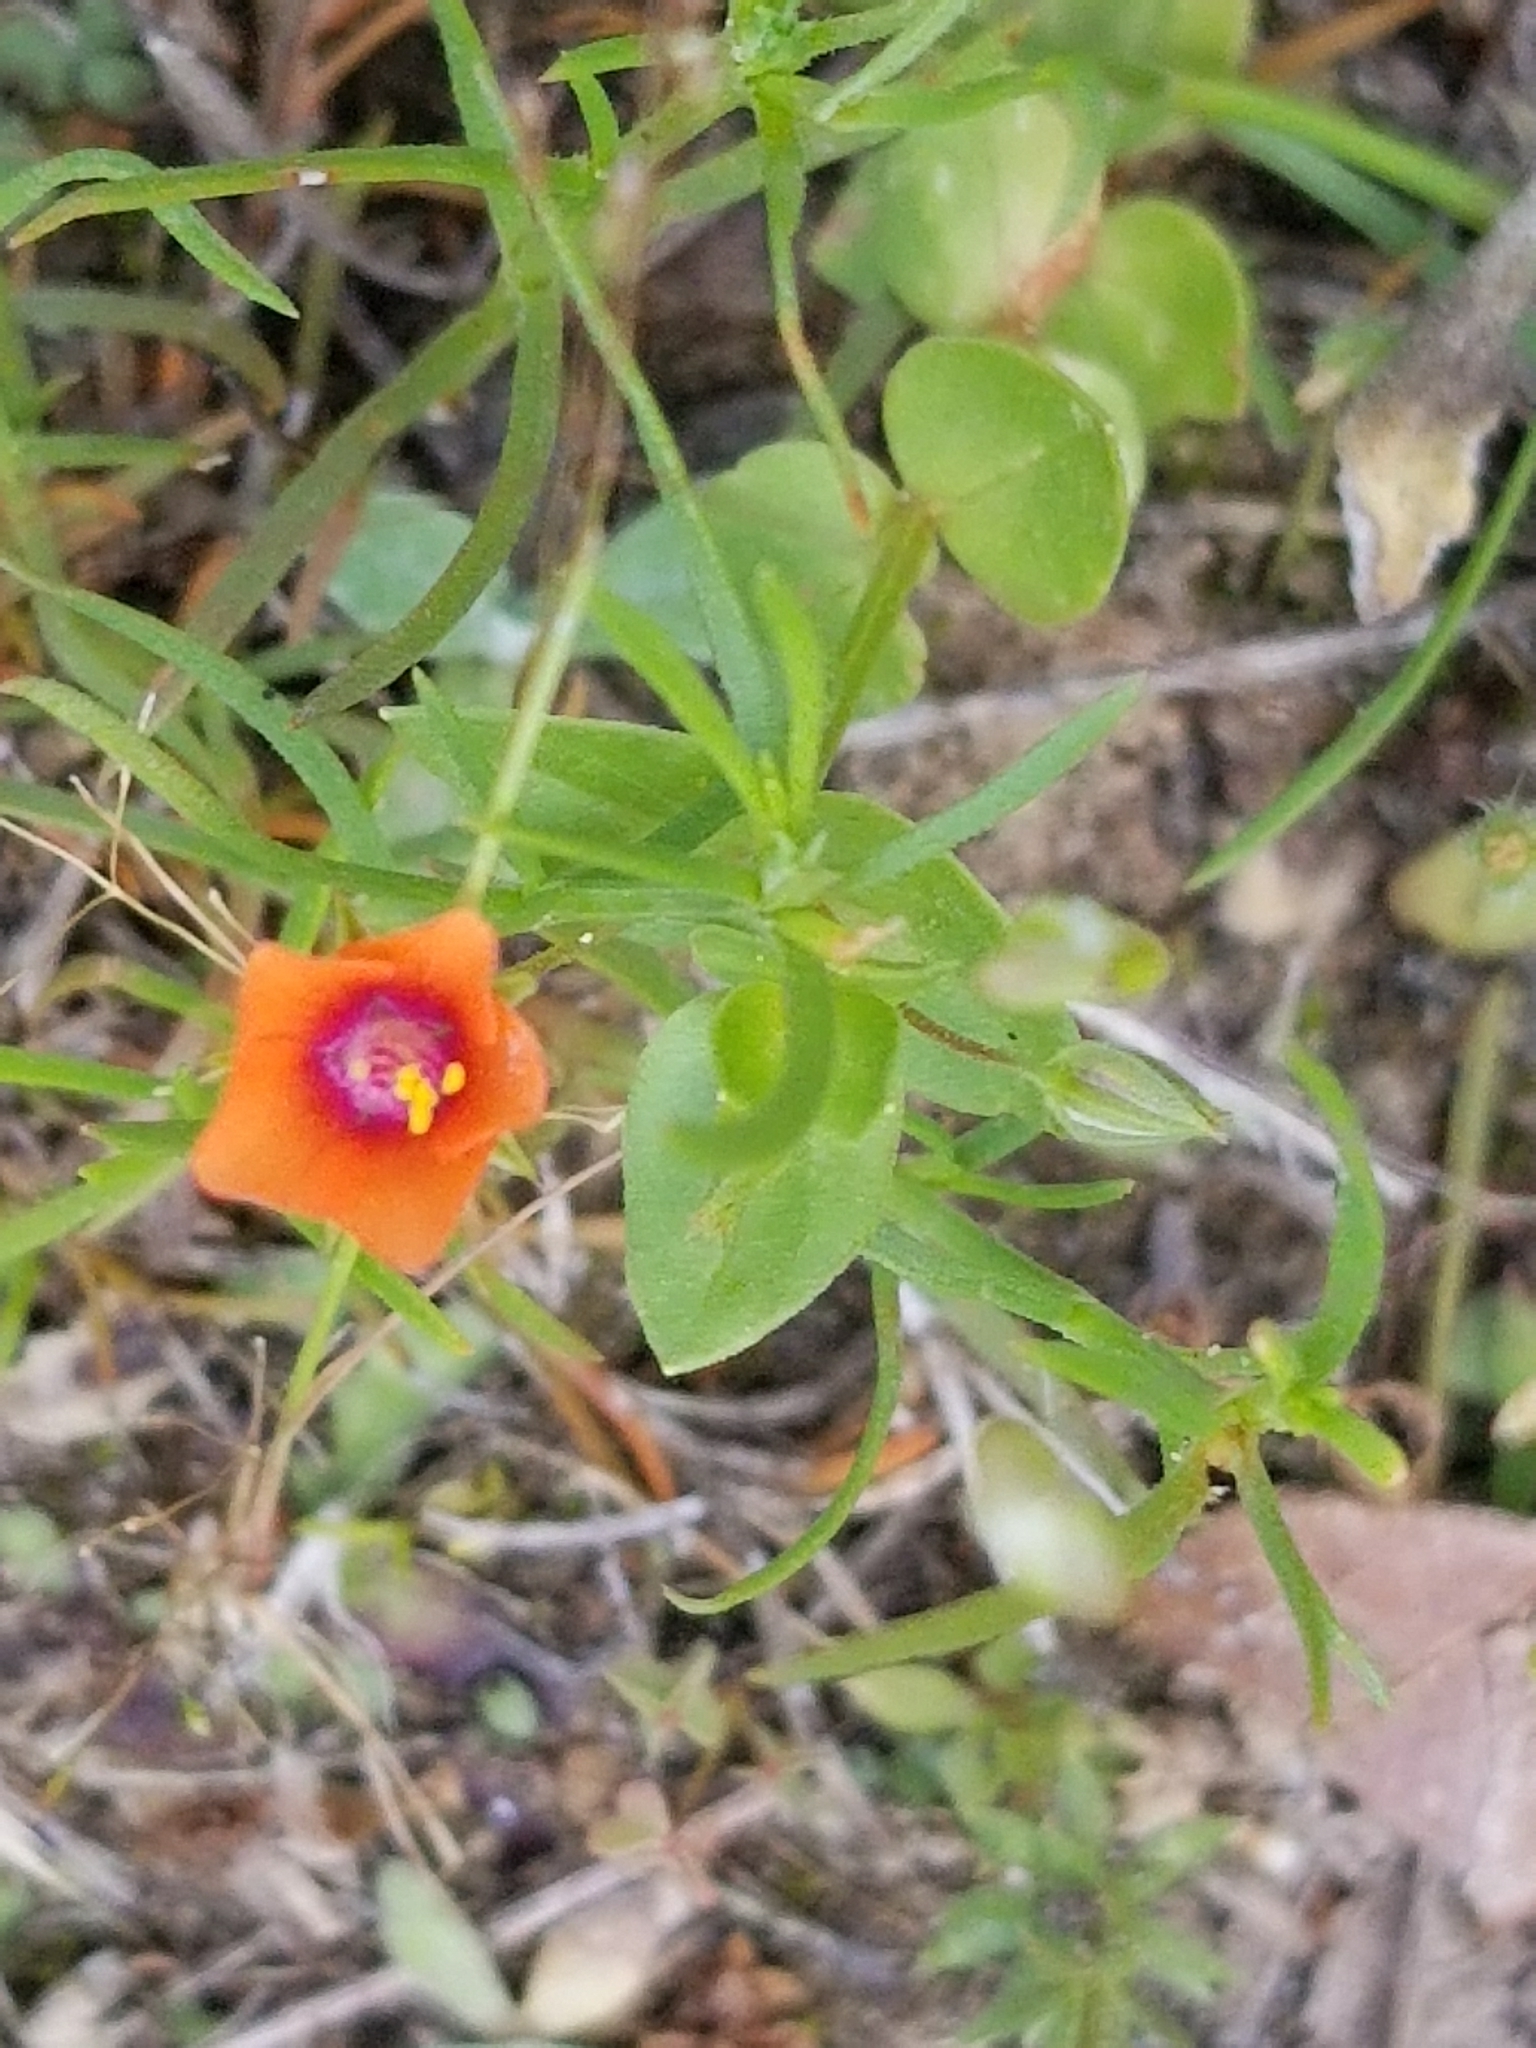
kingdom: Plantae
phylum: Tracheophyta
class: Magnoliopsida
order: Ericales
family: Primulaceae
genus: Lysimachia
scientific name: Lysimachia arvensis
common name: Scarlet pimpernel
